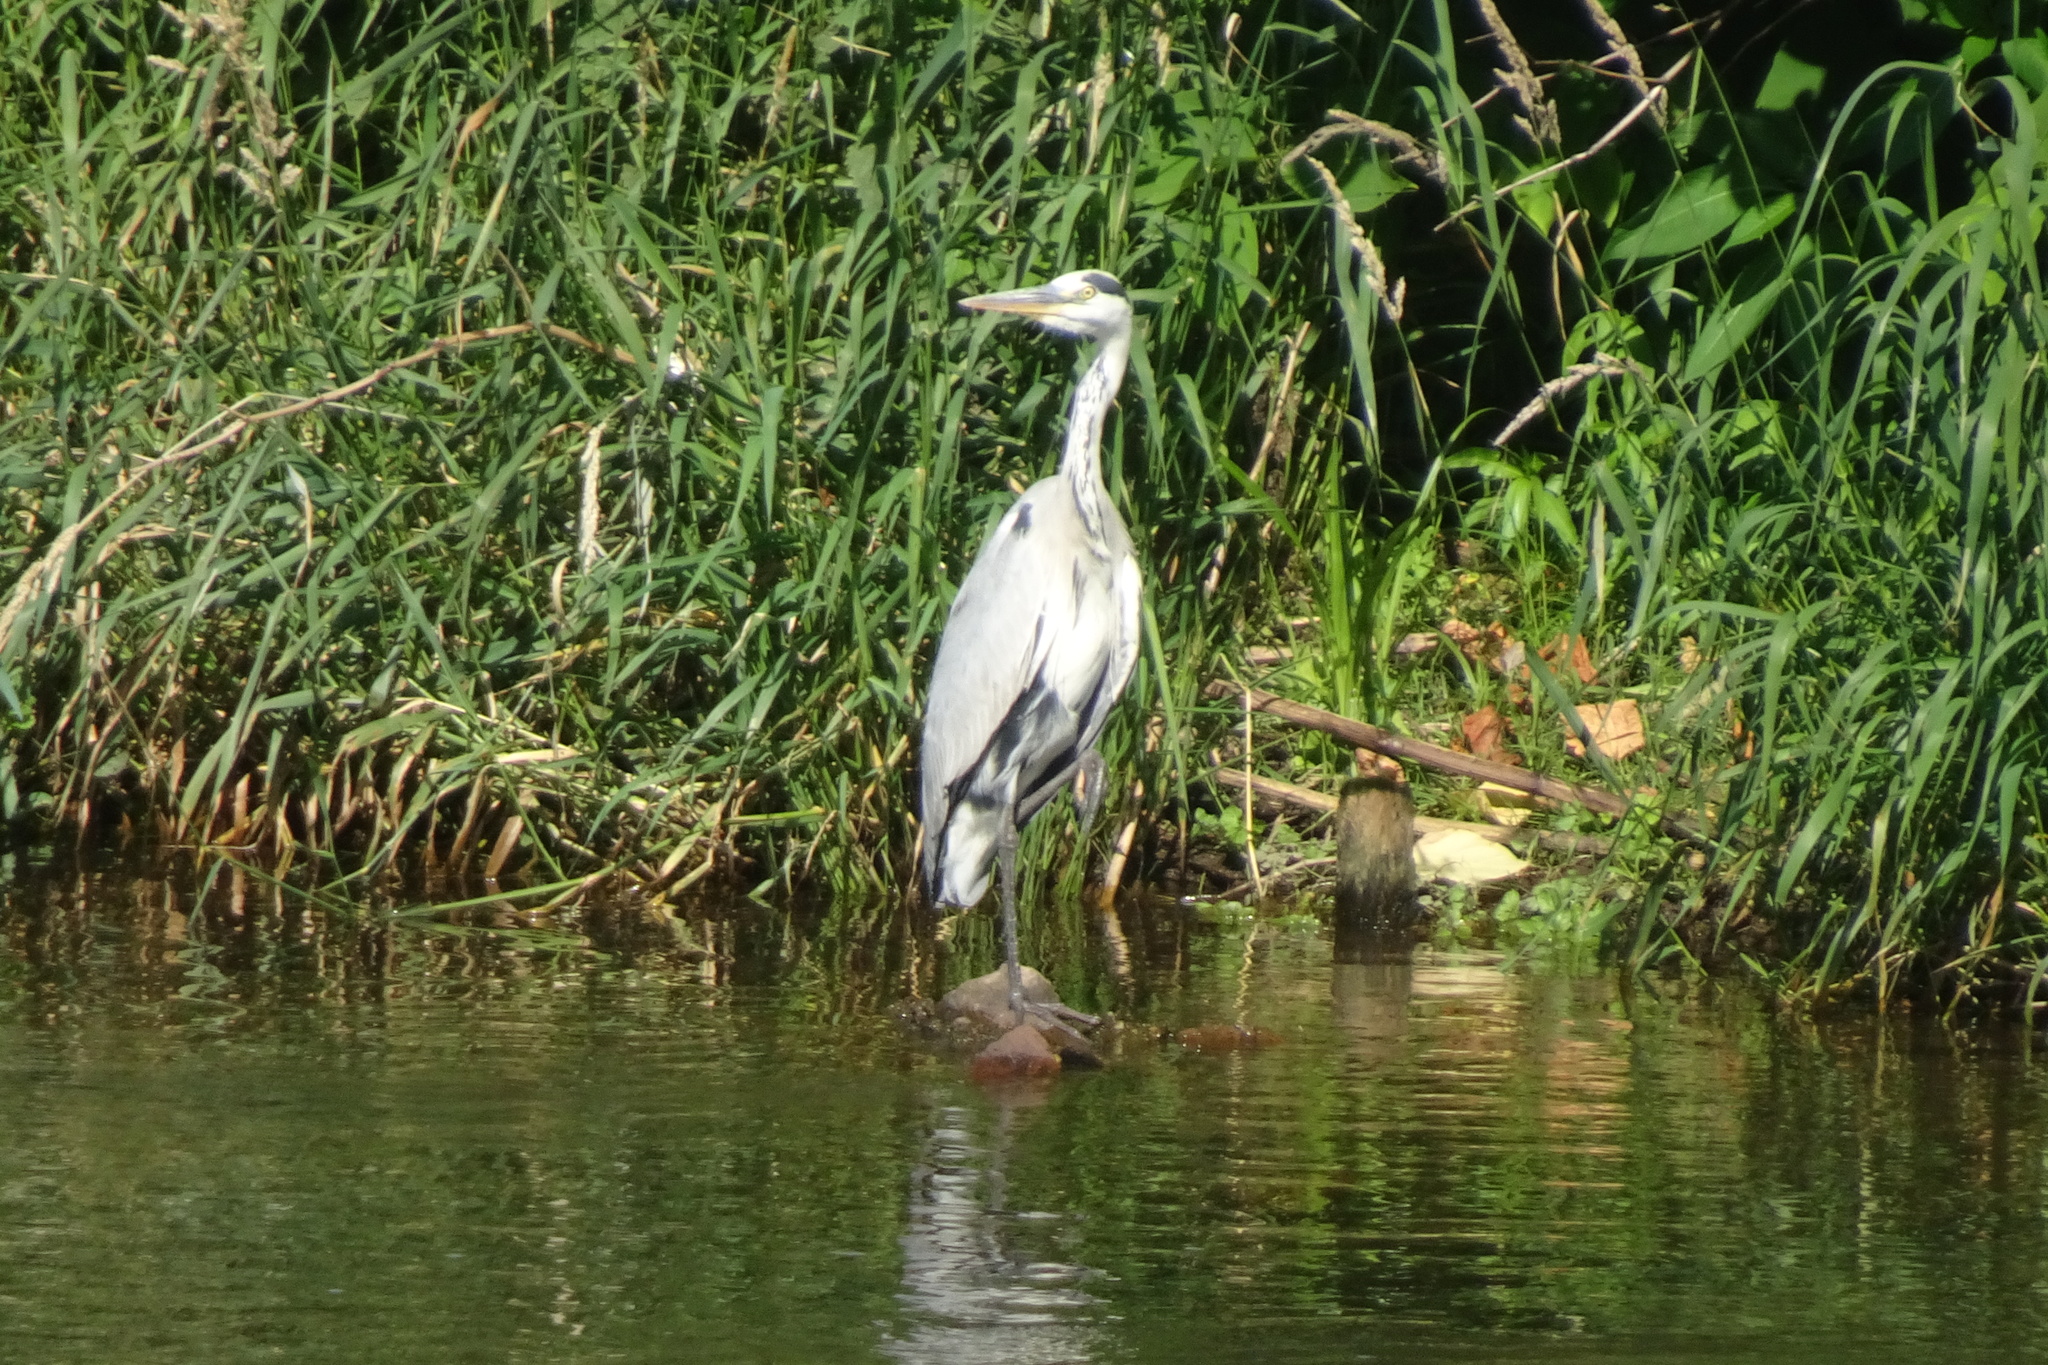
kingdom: Animalia
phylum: Chordata
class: Aves
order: Pelecaniformes
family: Ardeidae
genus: Ardea
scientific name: Ardea cinerea
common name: Grey heron
